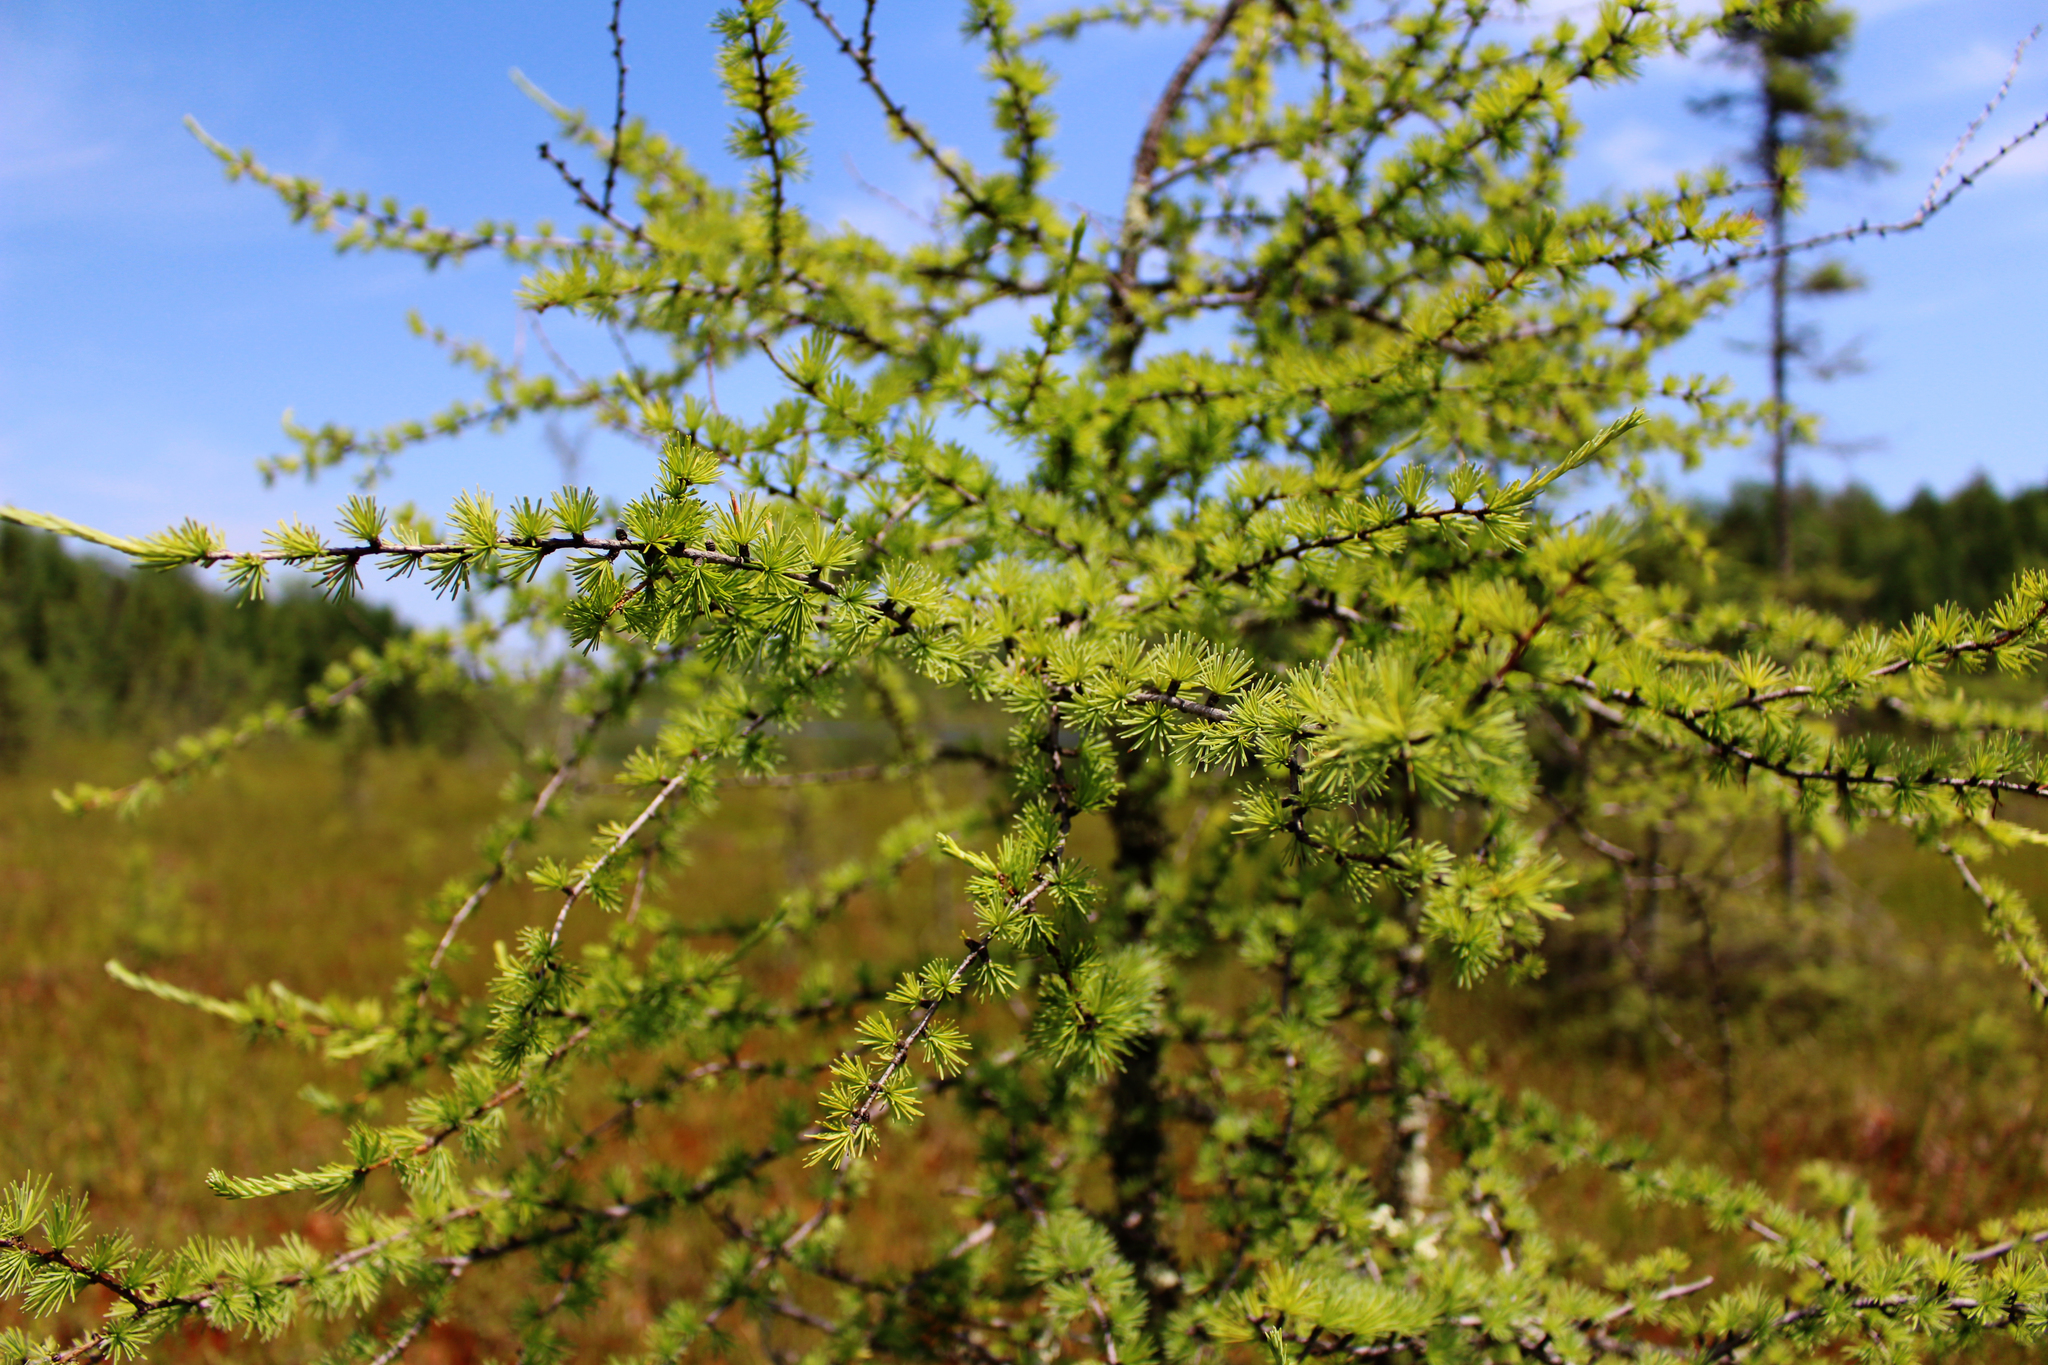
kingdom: Plantae
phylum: Tracheophyta
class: Pinopsida
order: Pinales
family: Pinaceae
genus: Larix
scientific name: Larix laricina
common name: American larch
